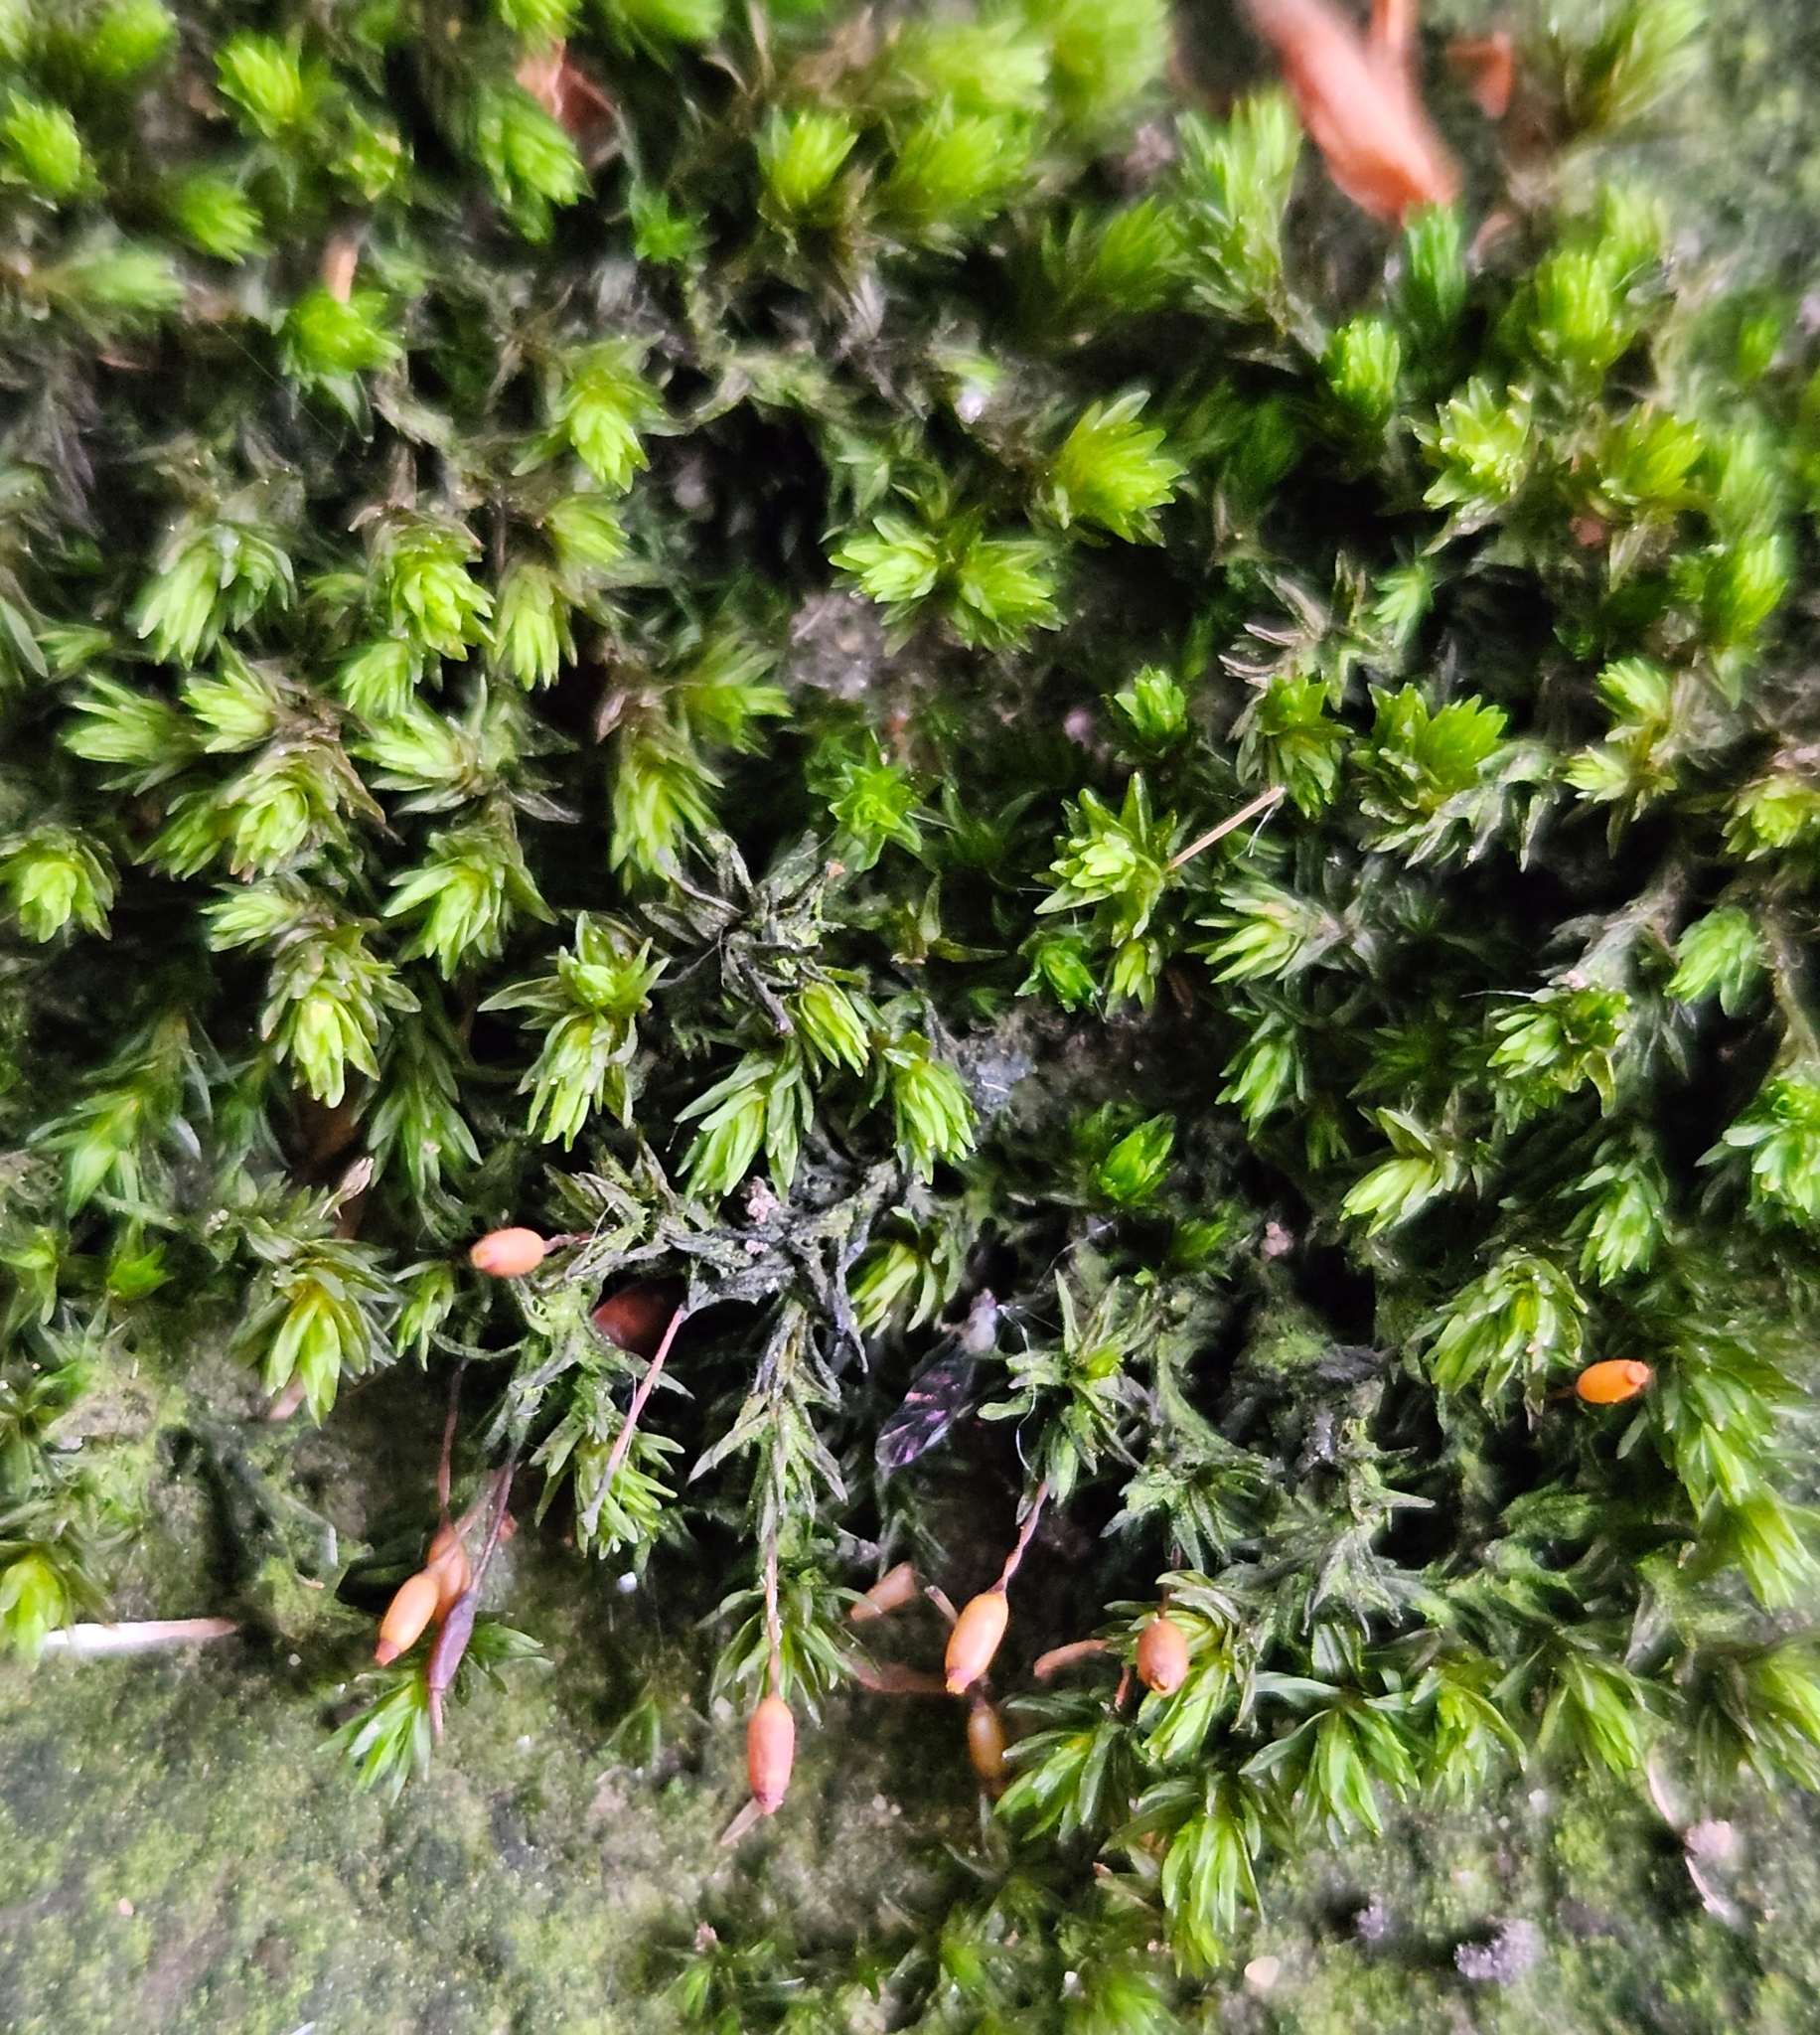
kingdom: Plantae
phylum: Bryophyta
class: Bryopsida
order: Grimmiales
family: Grimmiaceae
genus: Codriophorus
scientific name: Codriophorus acicularis
